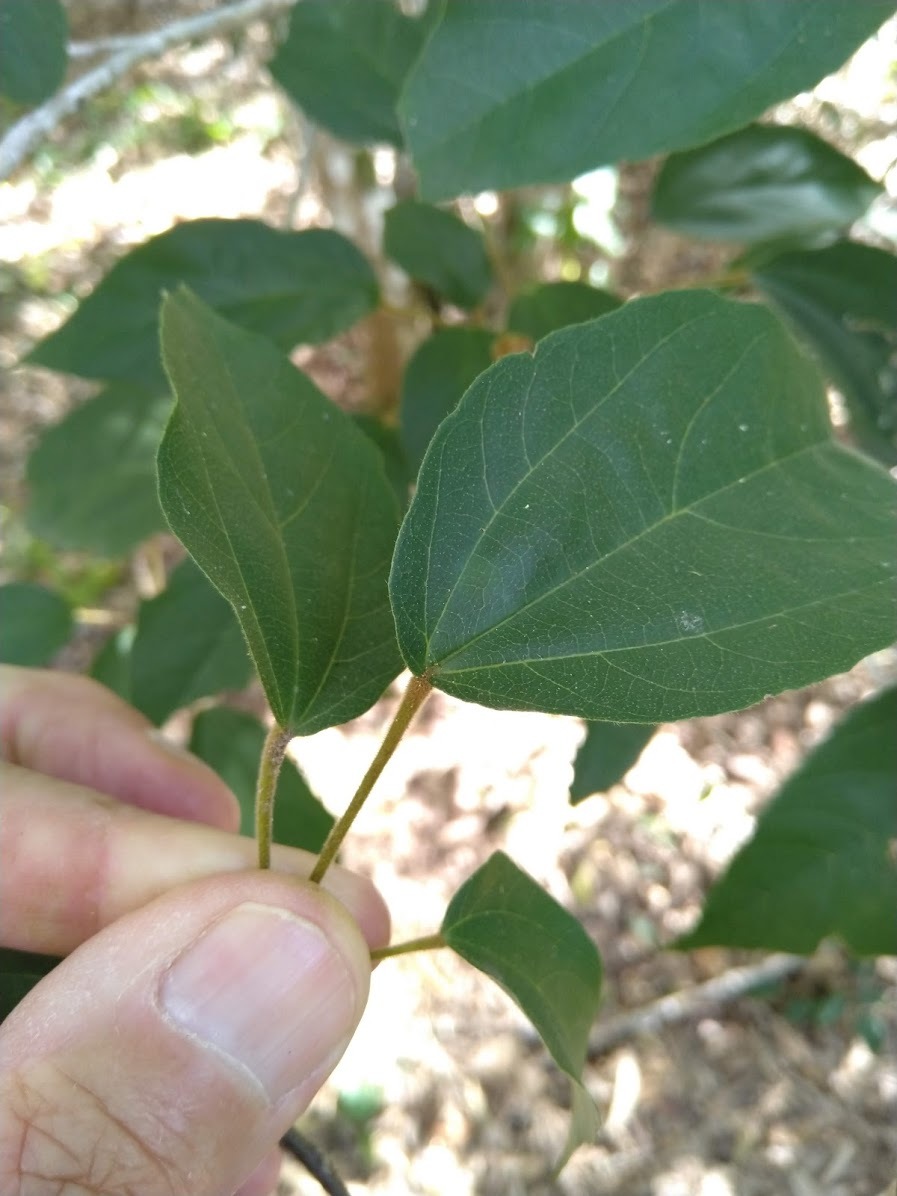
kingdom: Plantae
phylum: Tracheophyta
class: Magnoliopsida
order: Malpighiales
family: Euphorbiaceae
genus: Mallotus
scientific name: Mallotus philippensis
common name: Kamala tree
